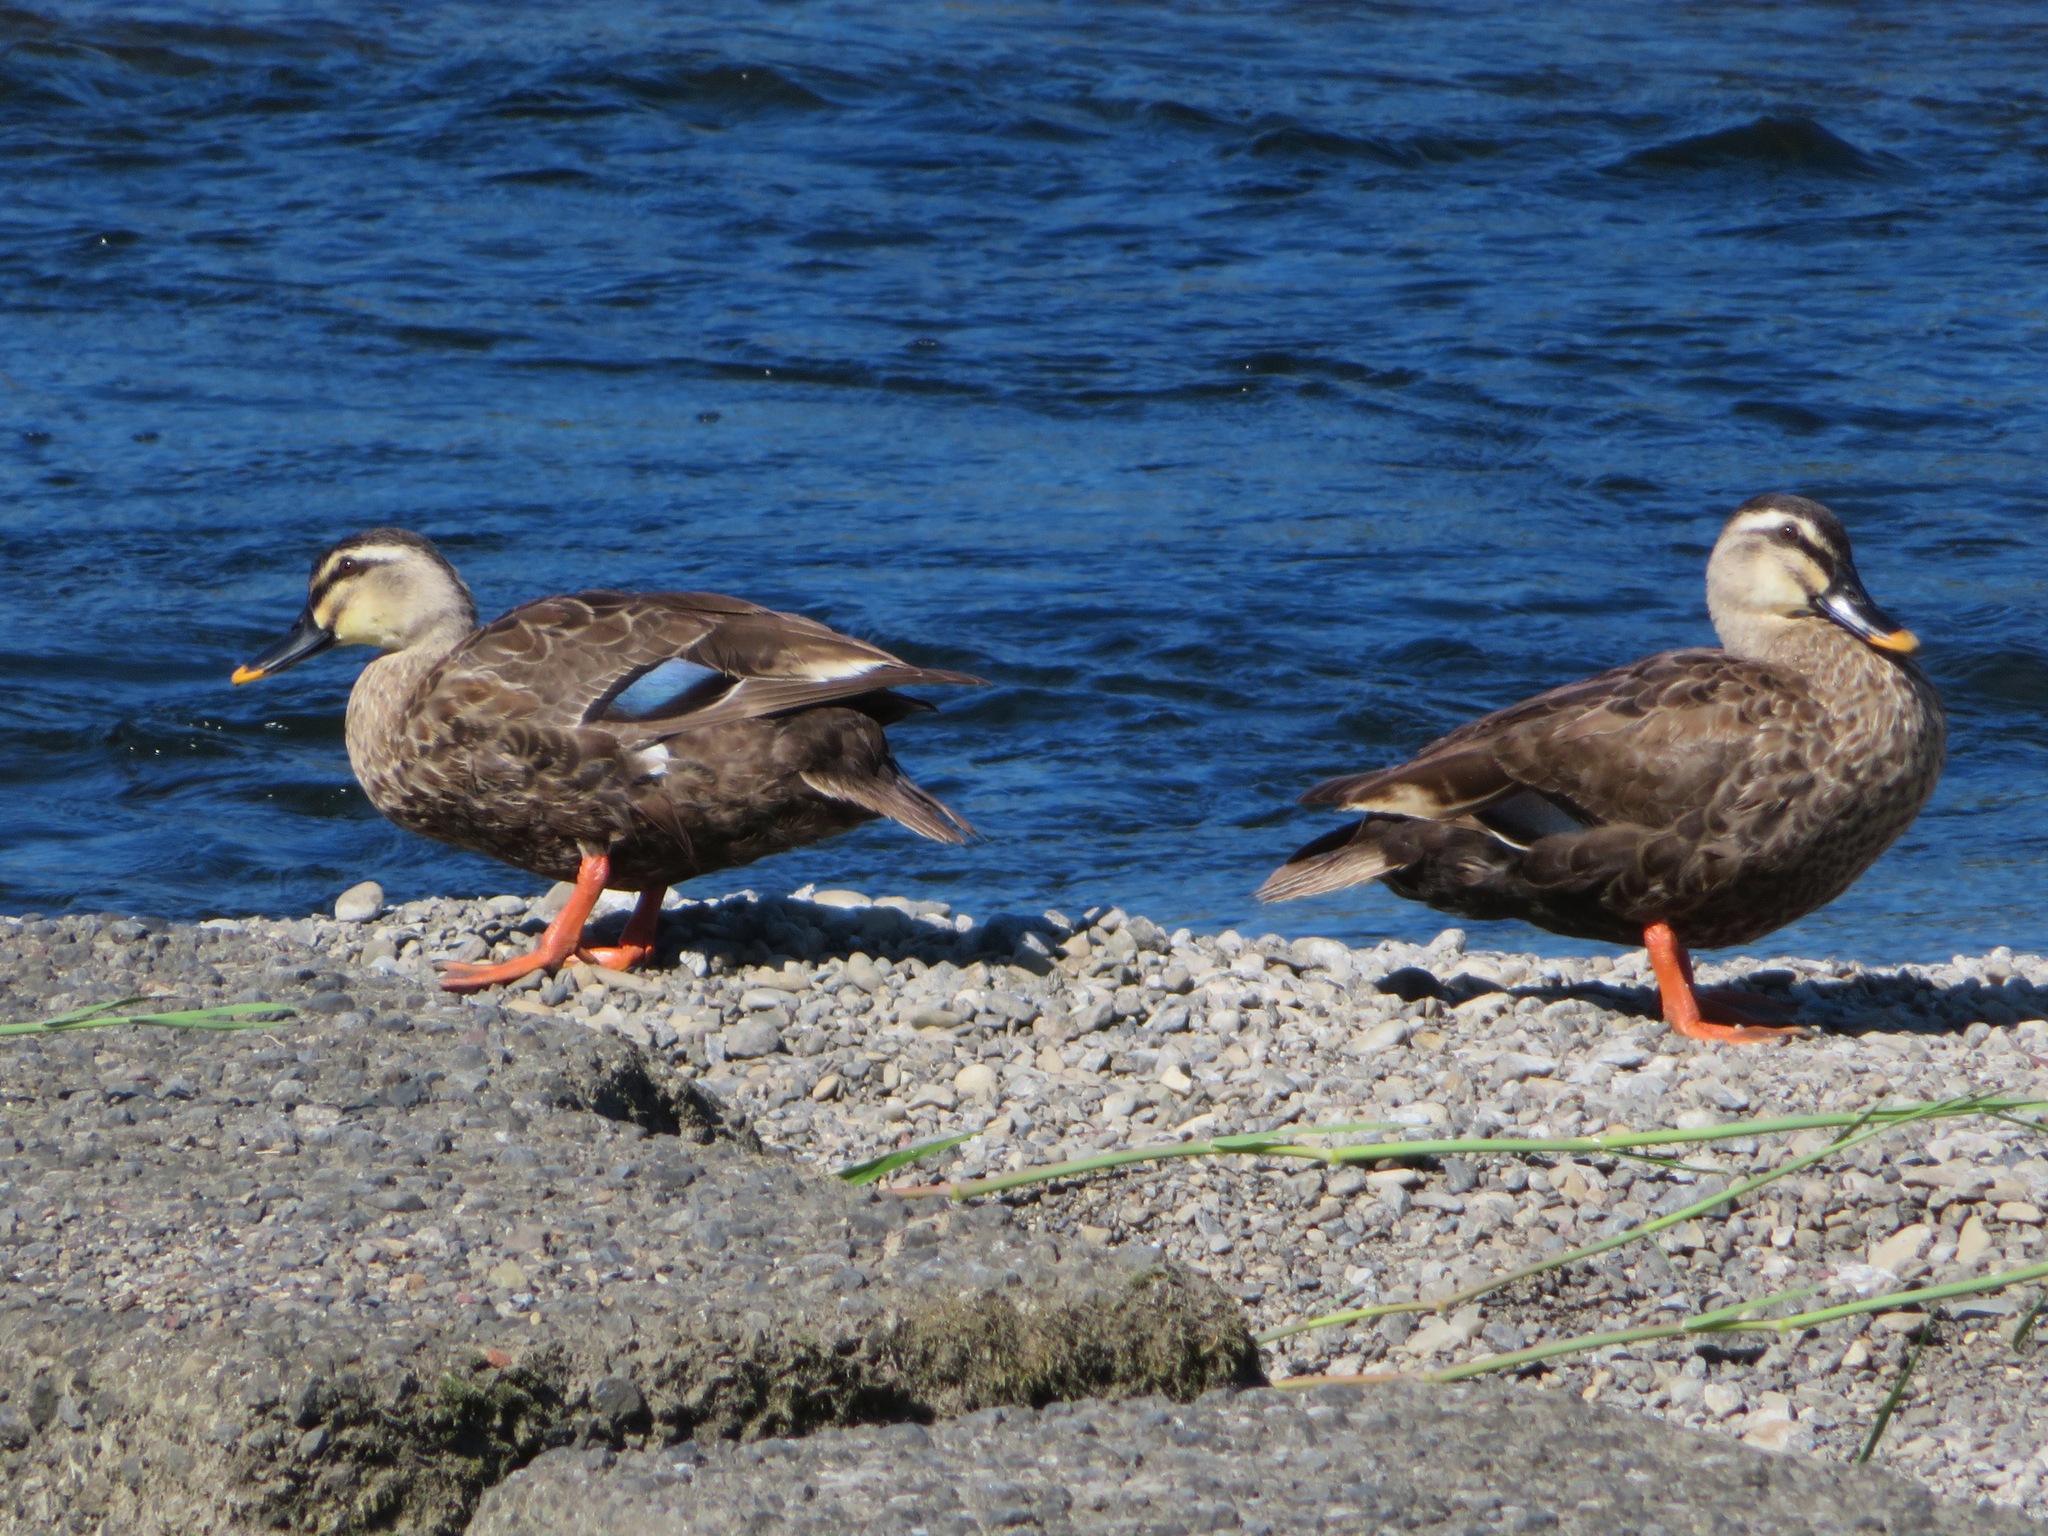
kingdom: Animalia
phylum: Chordata
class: Aves
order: Anseriformes
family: Anatidae
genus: Anas
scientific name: Anas zonorhyncha
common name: Eastern spot-billed duck
